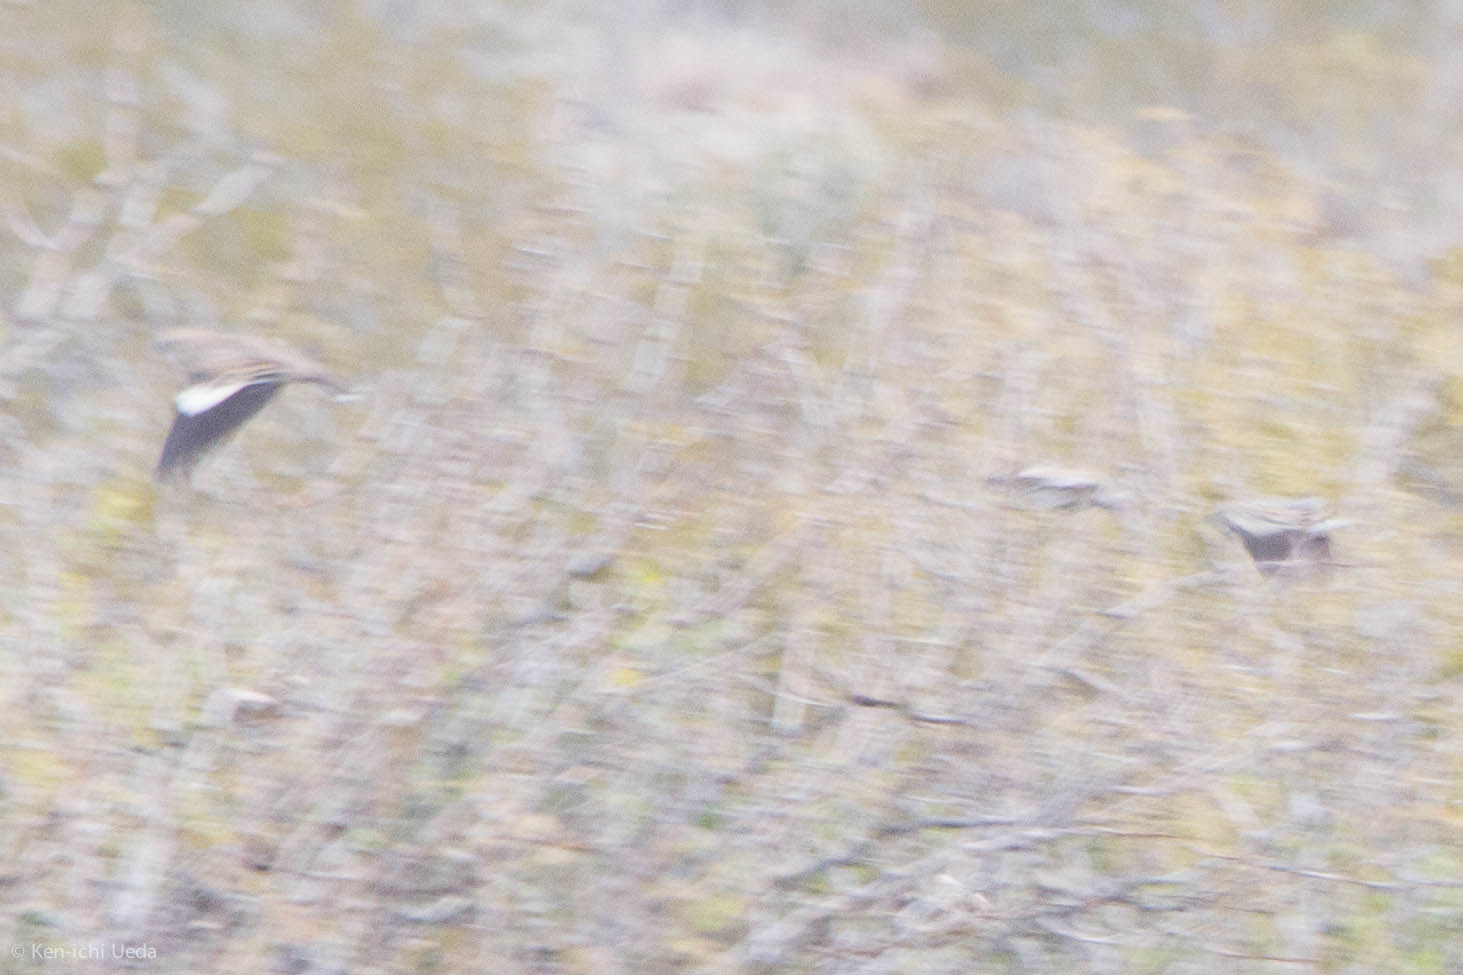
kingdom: Animalia
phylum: Chordata
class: Aves
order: Passeriformes
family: Passerellidae
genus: Calamospiza
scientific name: Calamospiza melanocorys
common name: Lark bunting
